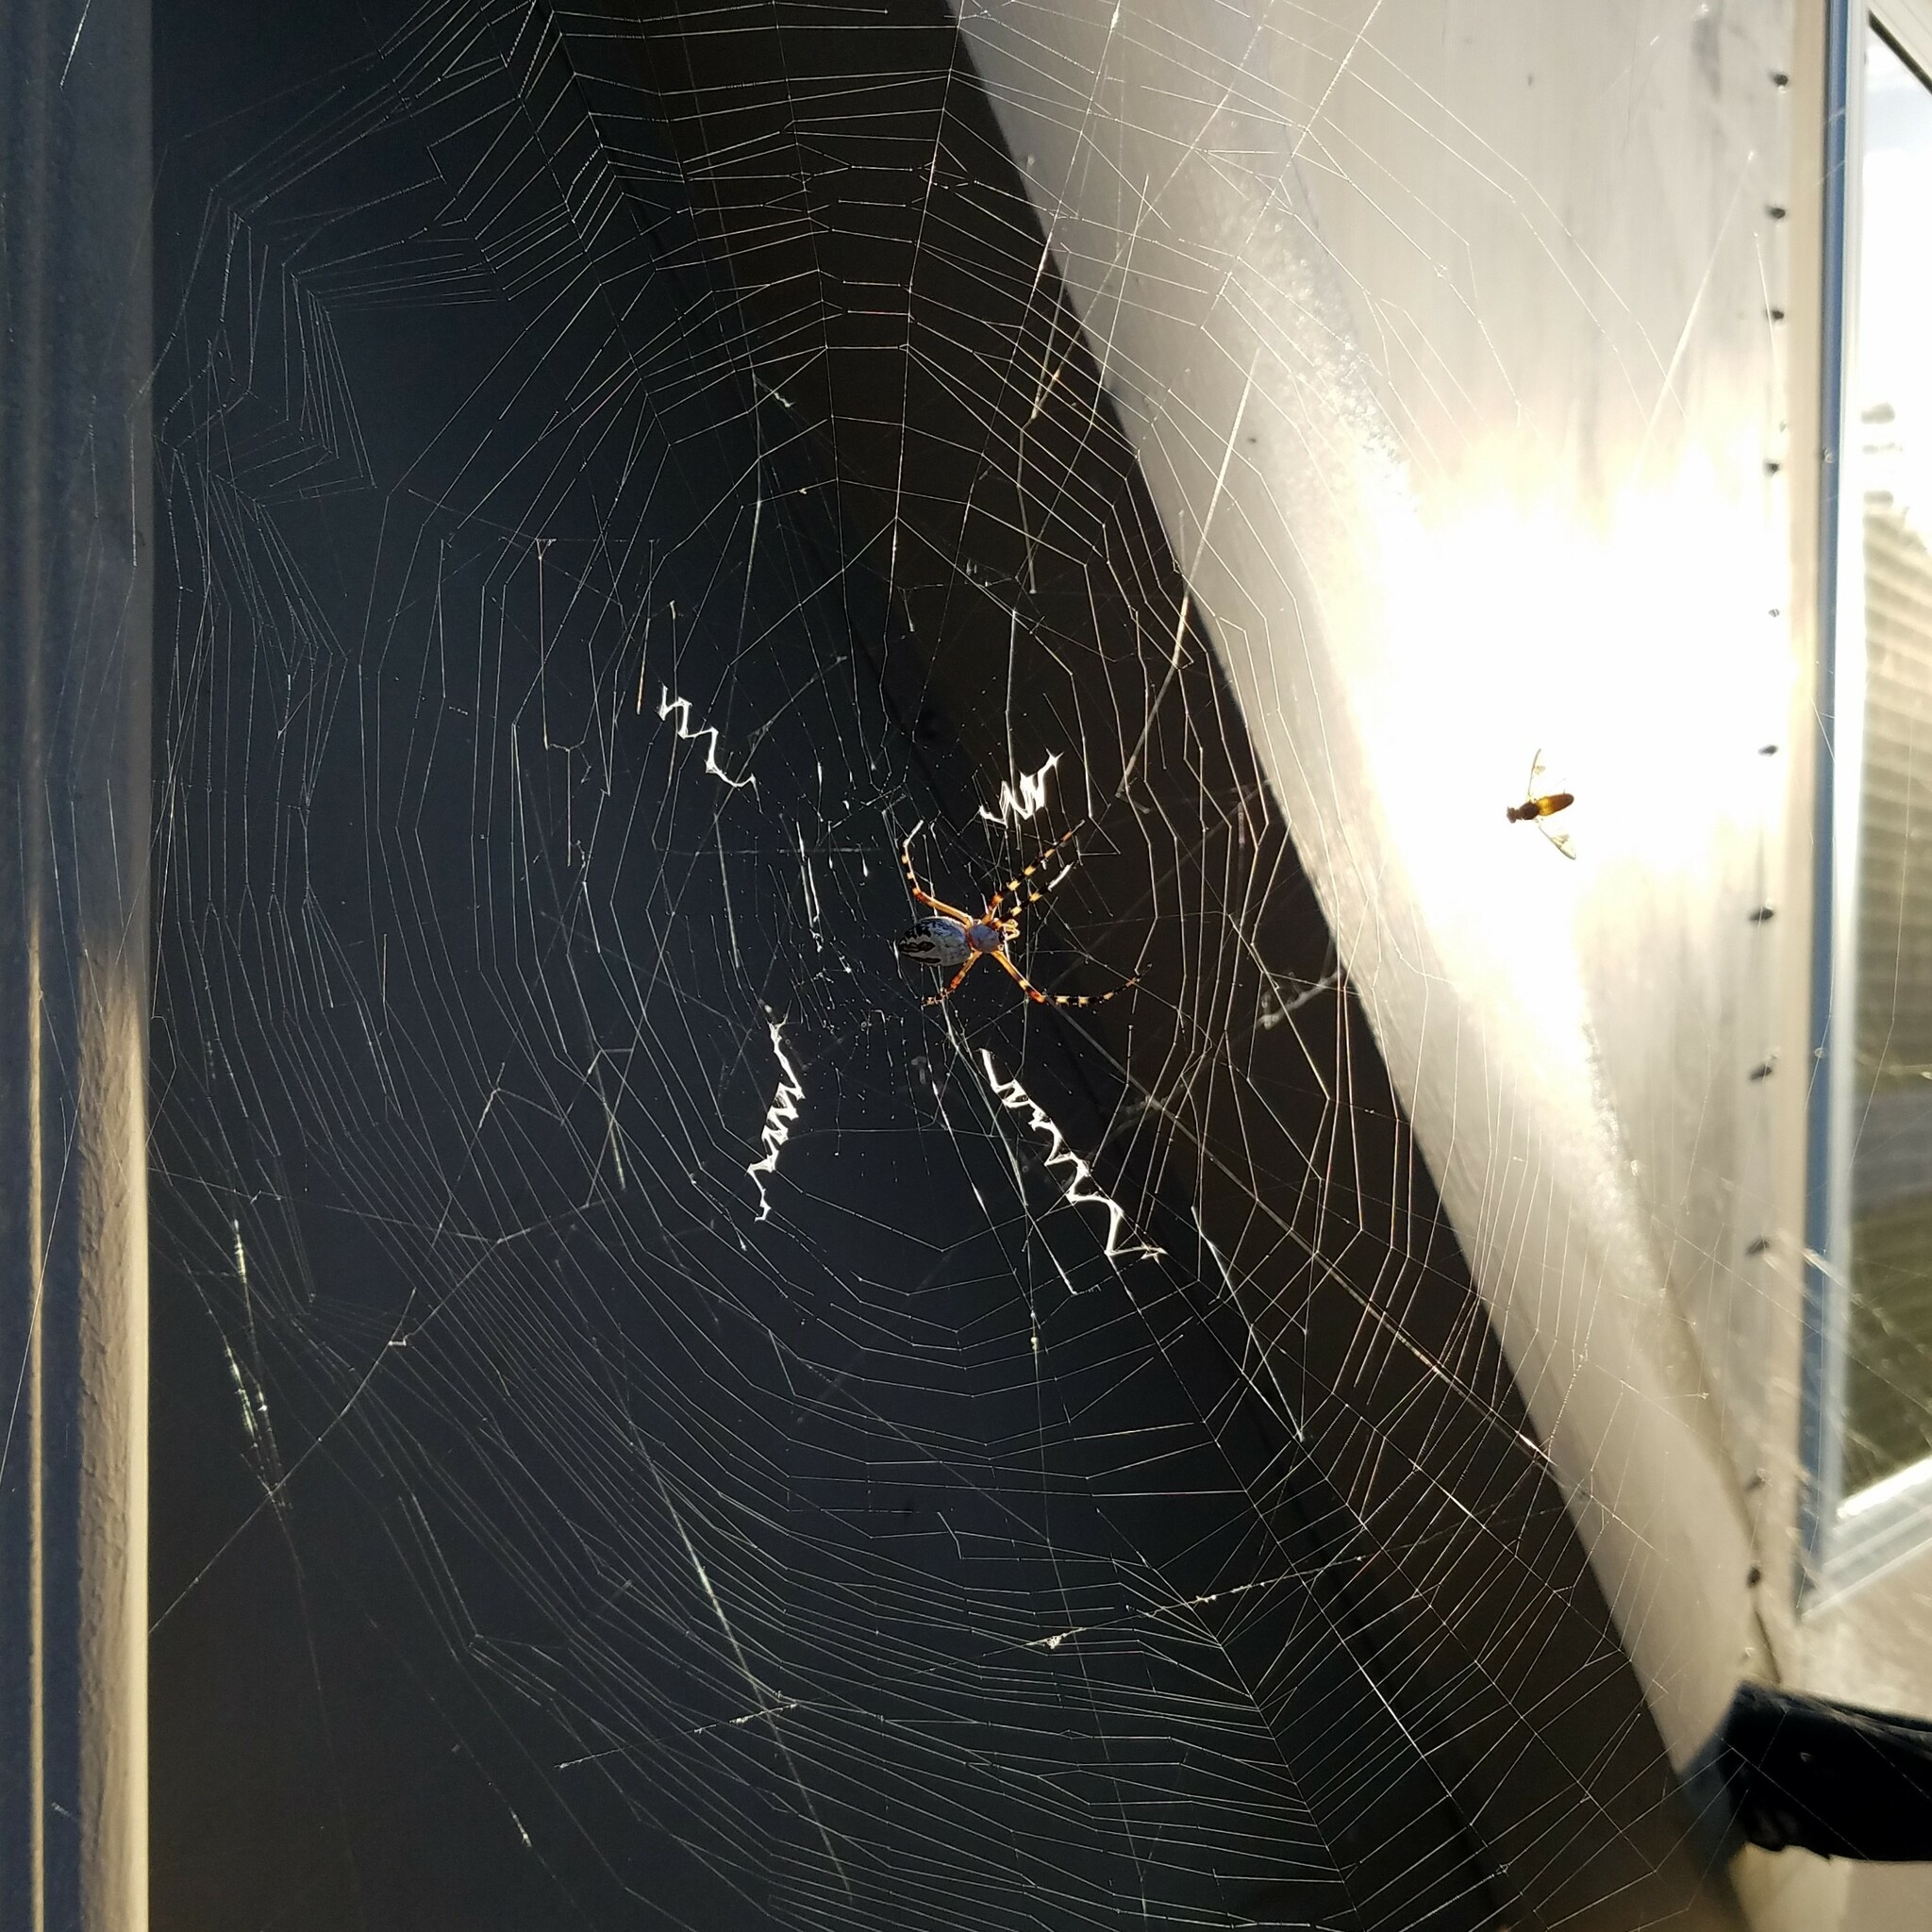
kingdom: Animalia
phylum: Arthropoda
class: Arachnida
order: Araneae
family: Araneidae
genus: Argiope
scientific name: Argiope florida
